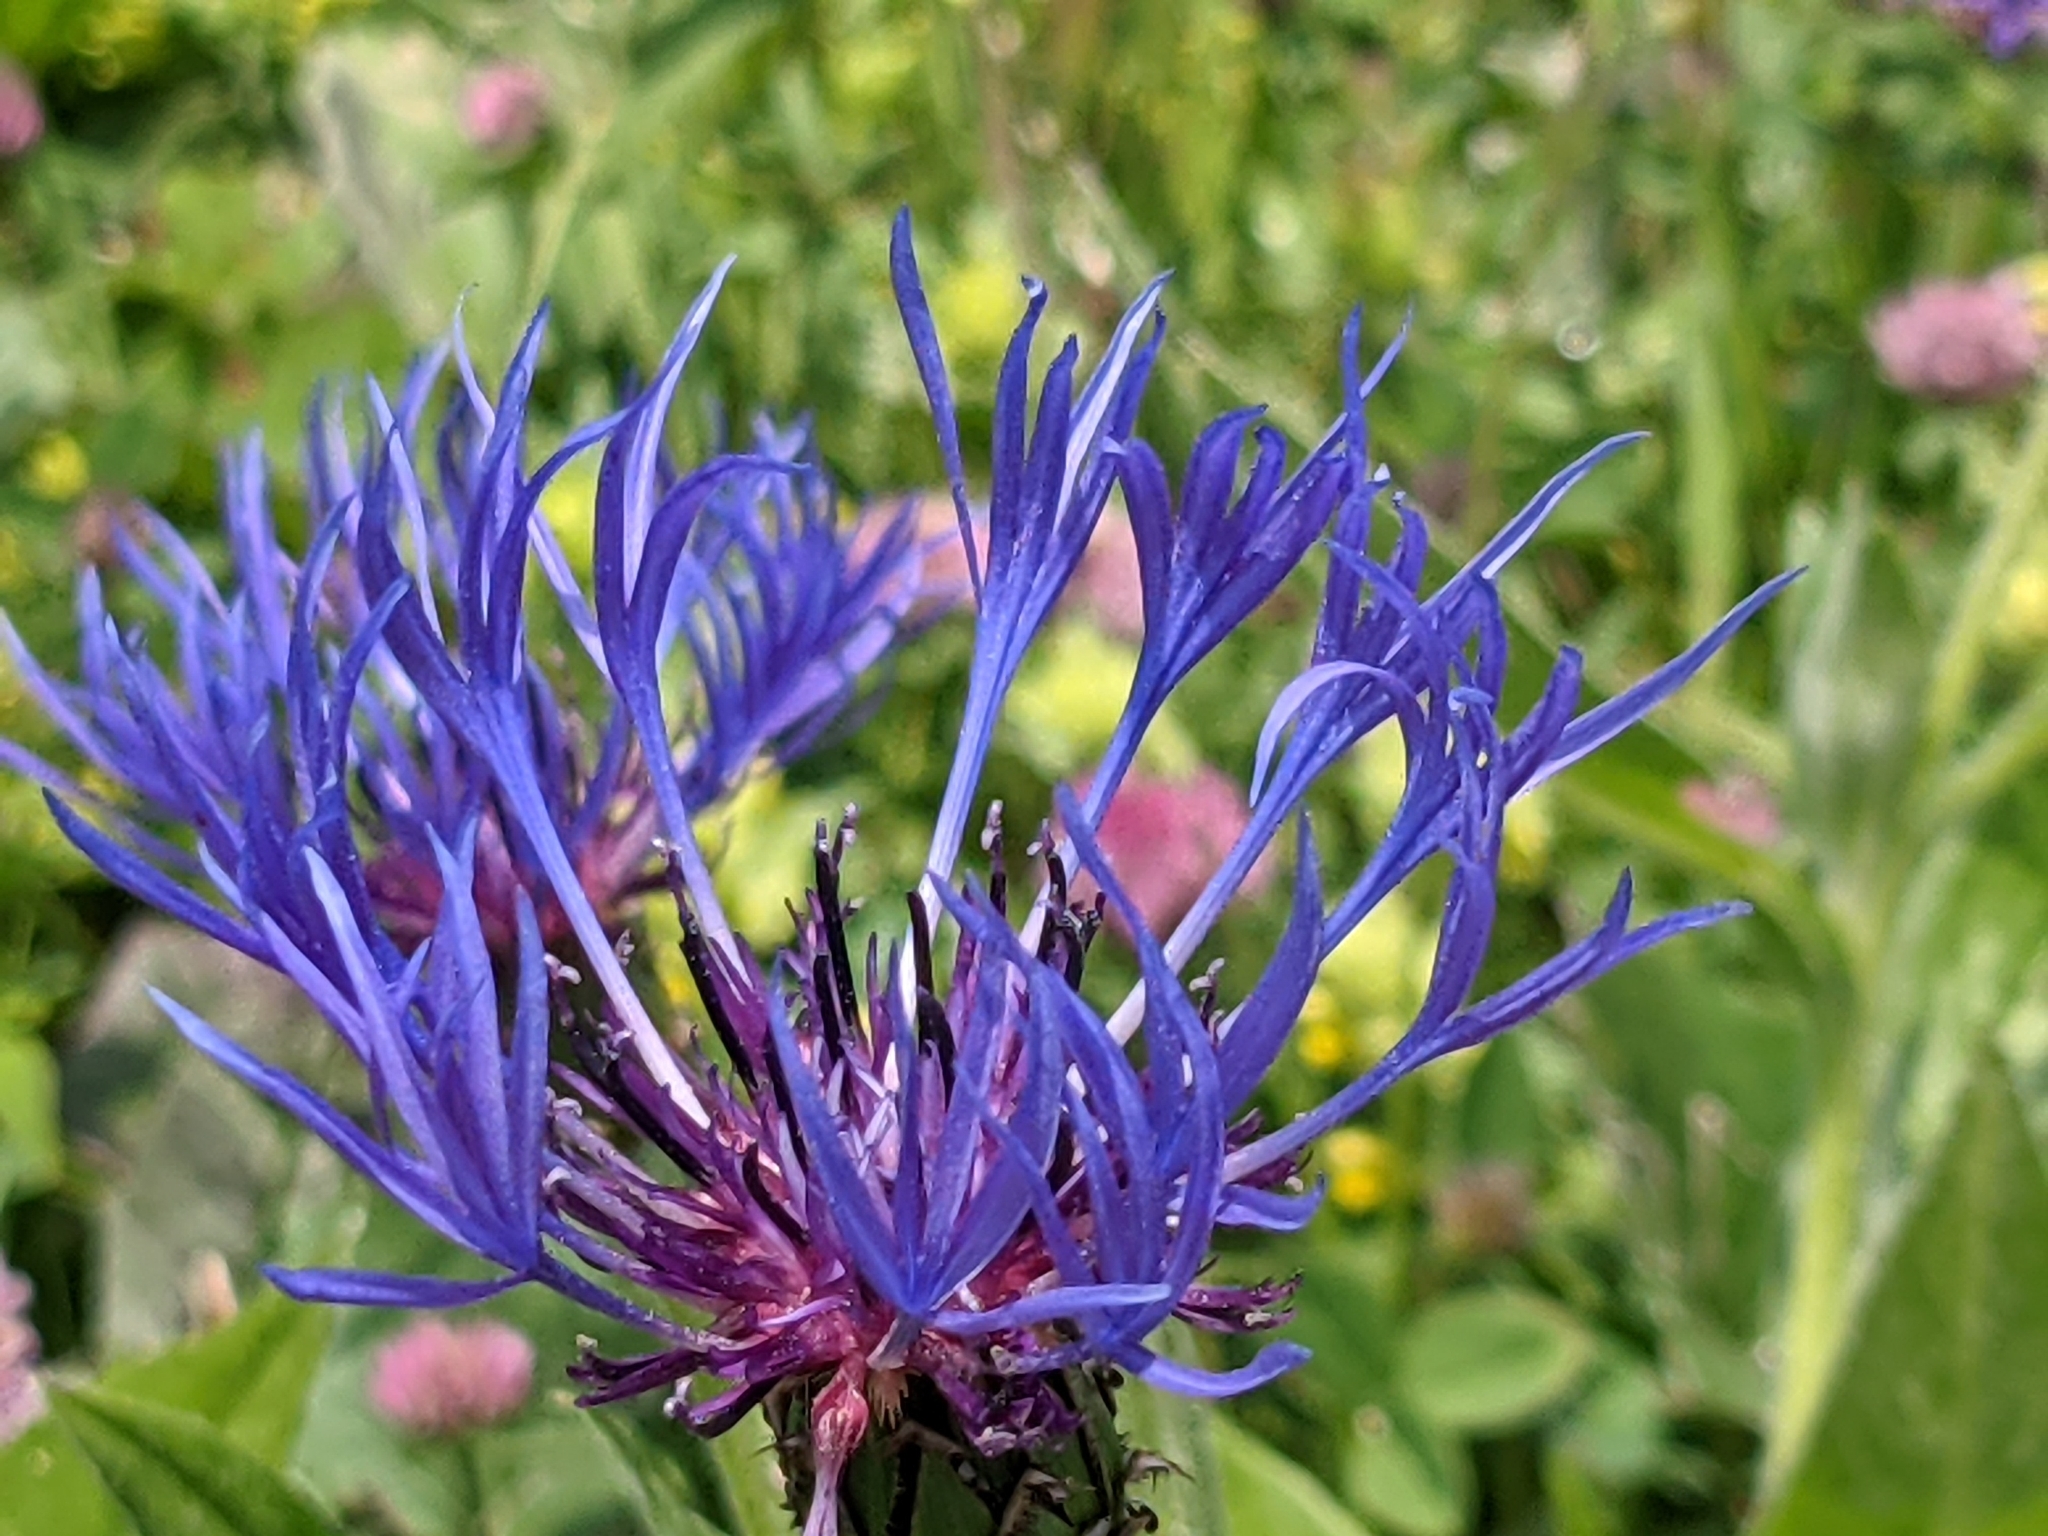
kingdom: Plantae
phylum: Tracheophyta
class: Magnoliopsida
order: Asterales
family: Asteraceae
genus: Centaurea
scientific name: Centaurea montana
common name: Perennial cornflower
